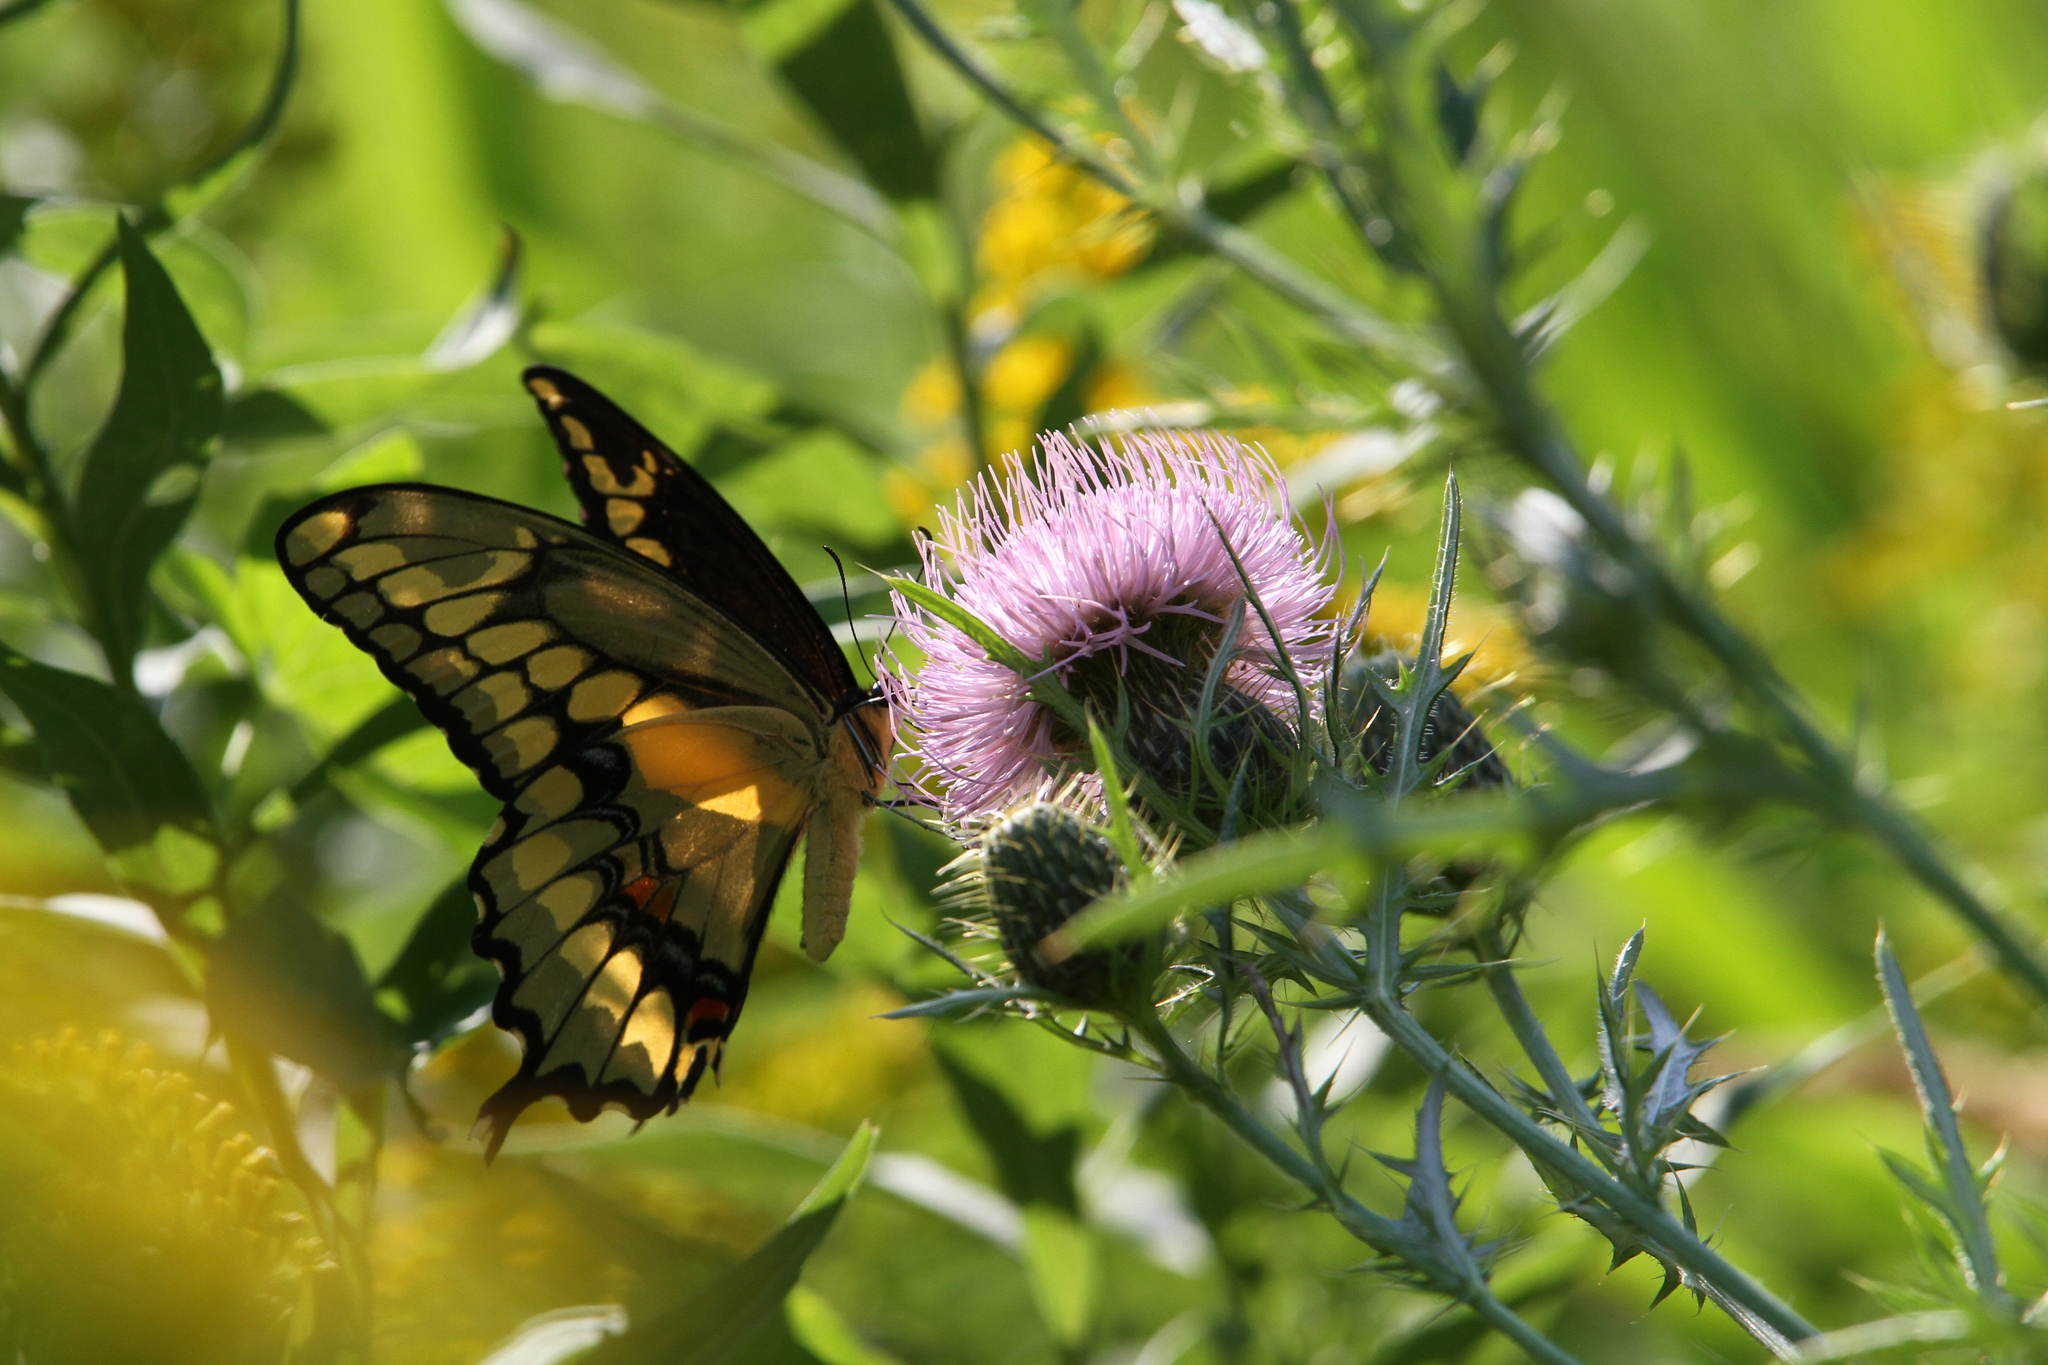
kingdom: Animalia
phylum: Arthropoda
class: Insecta
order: Lepidoptera
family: Papilionidae
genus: Papilio
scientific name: Papilio cresphontes
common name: Giant swallowtail
